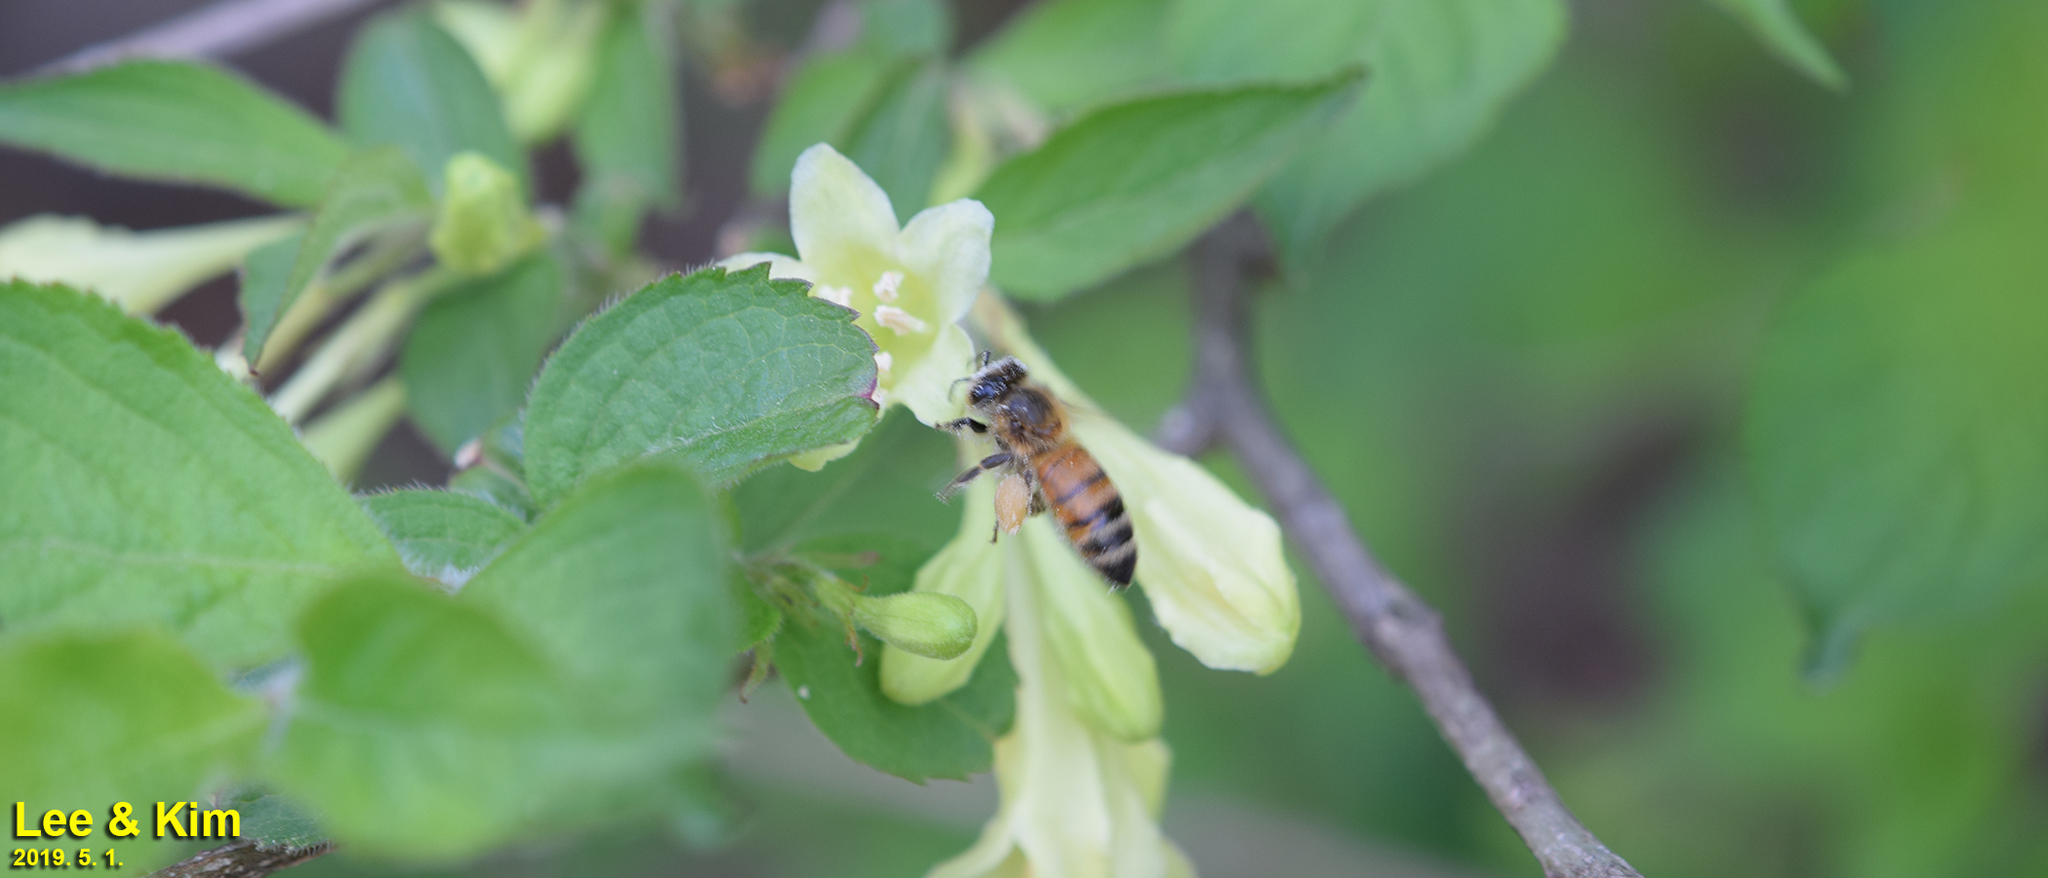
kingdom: Animalia
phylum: Arthropoda
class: Insecta
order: Hymenoptera
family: Apidae
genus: Apis
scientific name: Apis mellifera
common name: Honey bee
